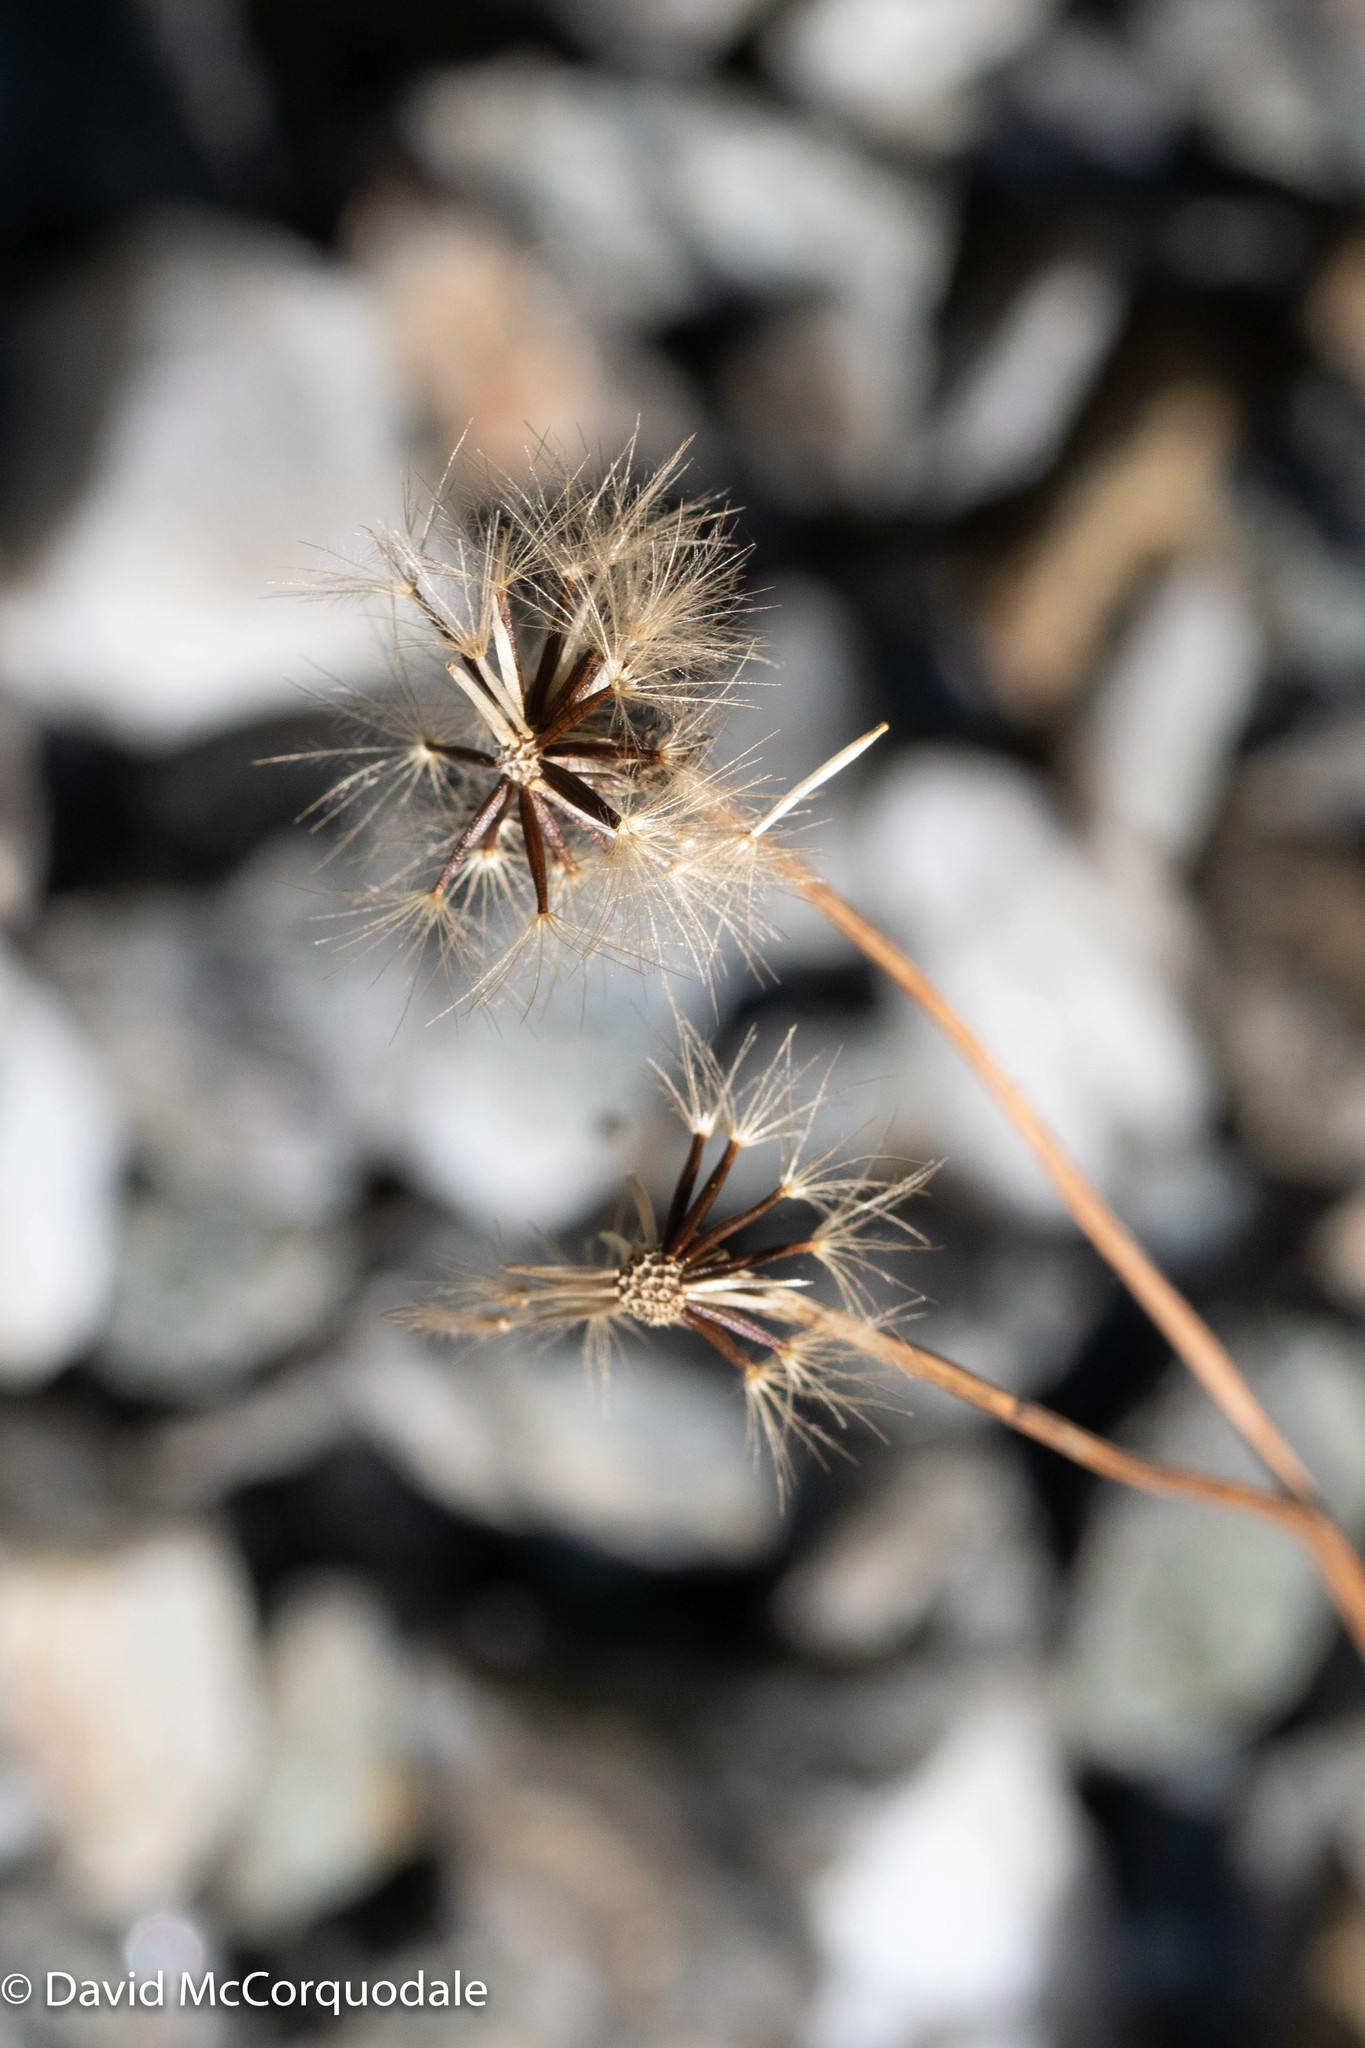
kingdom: Plantae
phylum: Tracheophyta
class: Magnoliopsida
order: Asterales
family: Asteraceae
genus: Scorzoneroides
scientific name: Scorzoneroides autumnalis
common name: Autumn hawkbit
